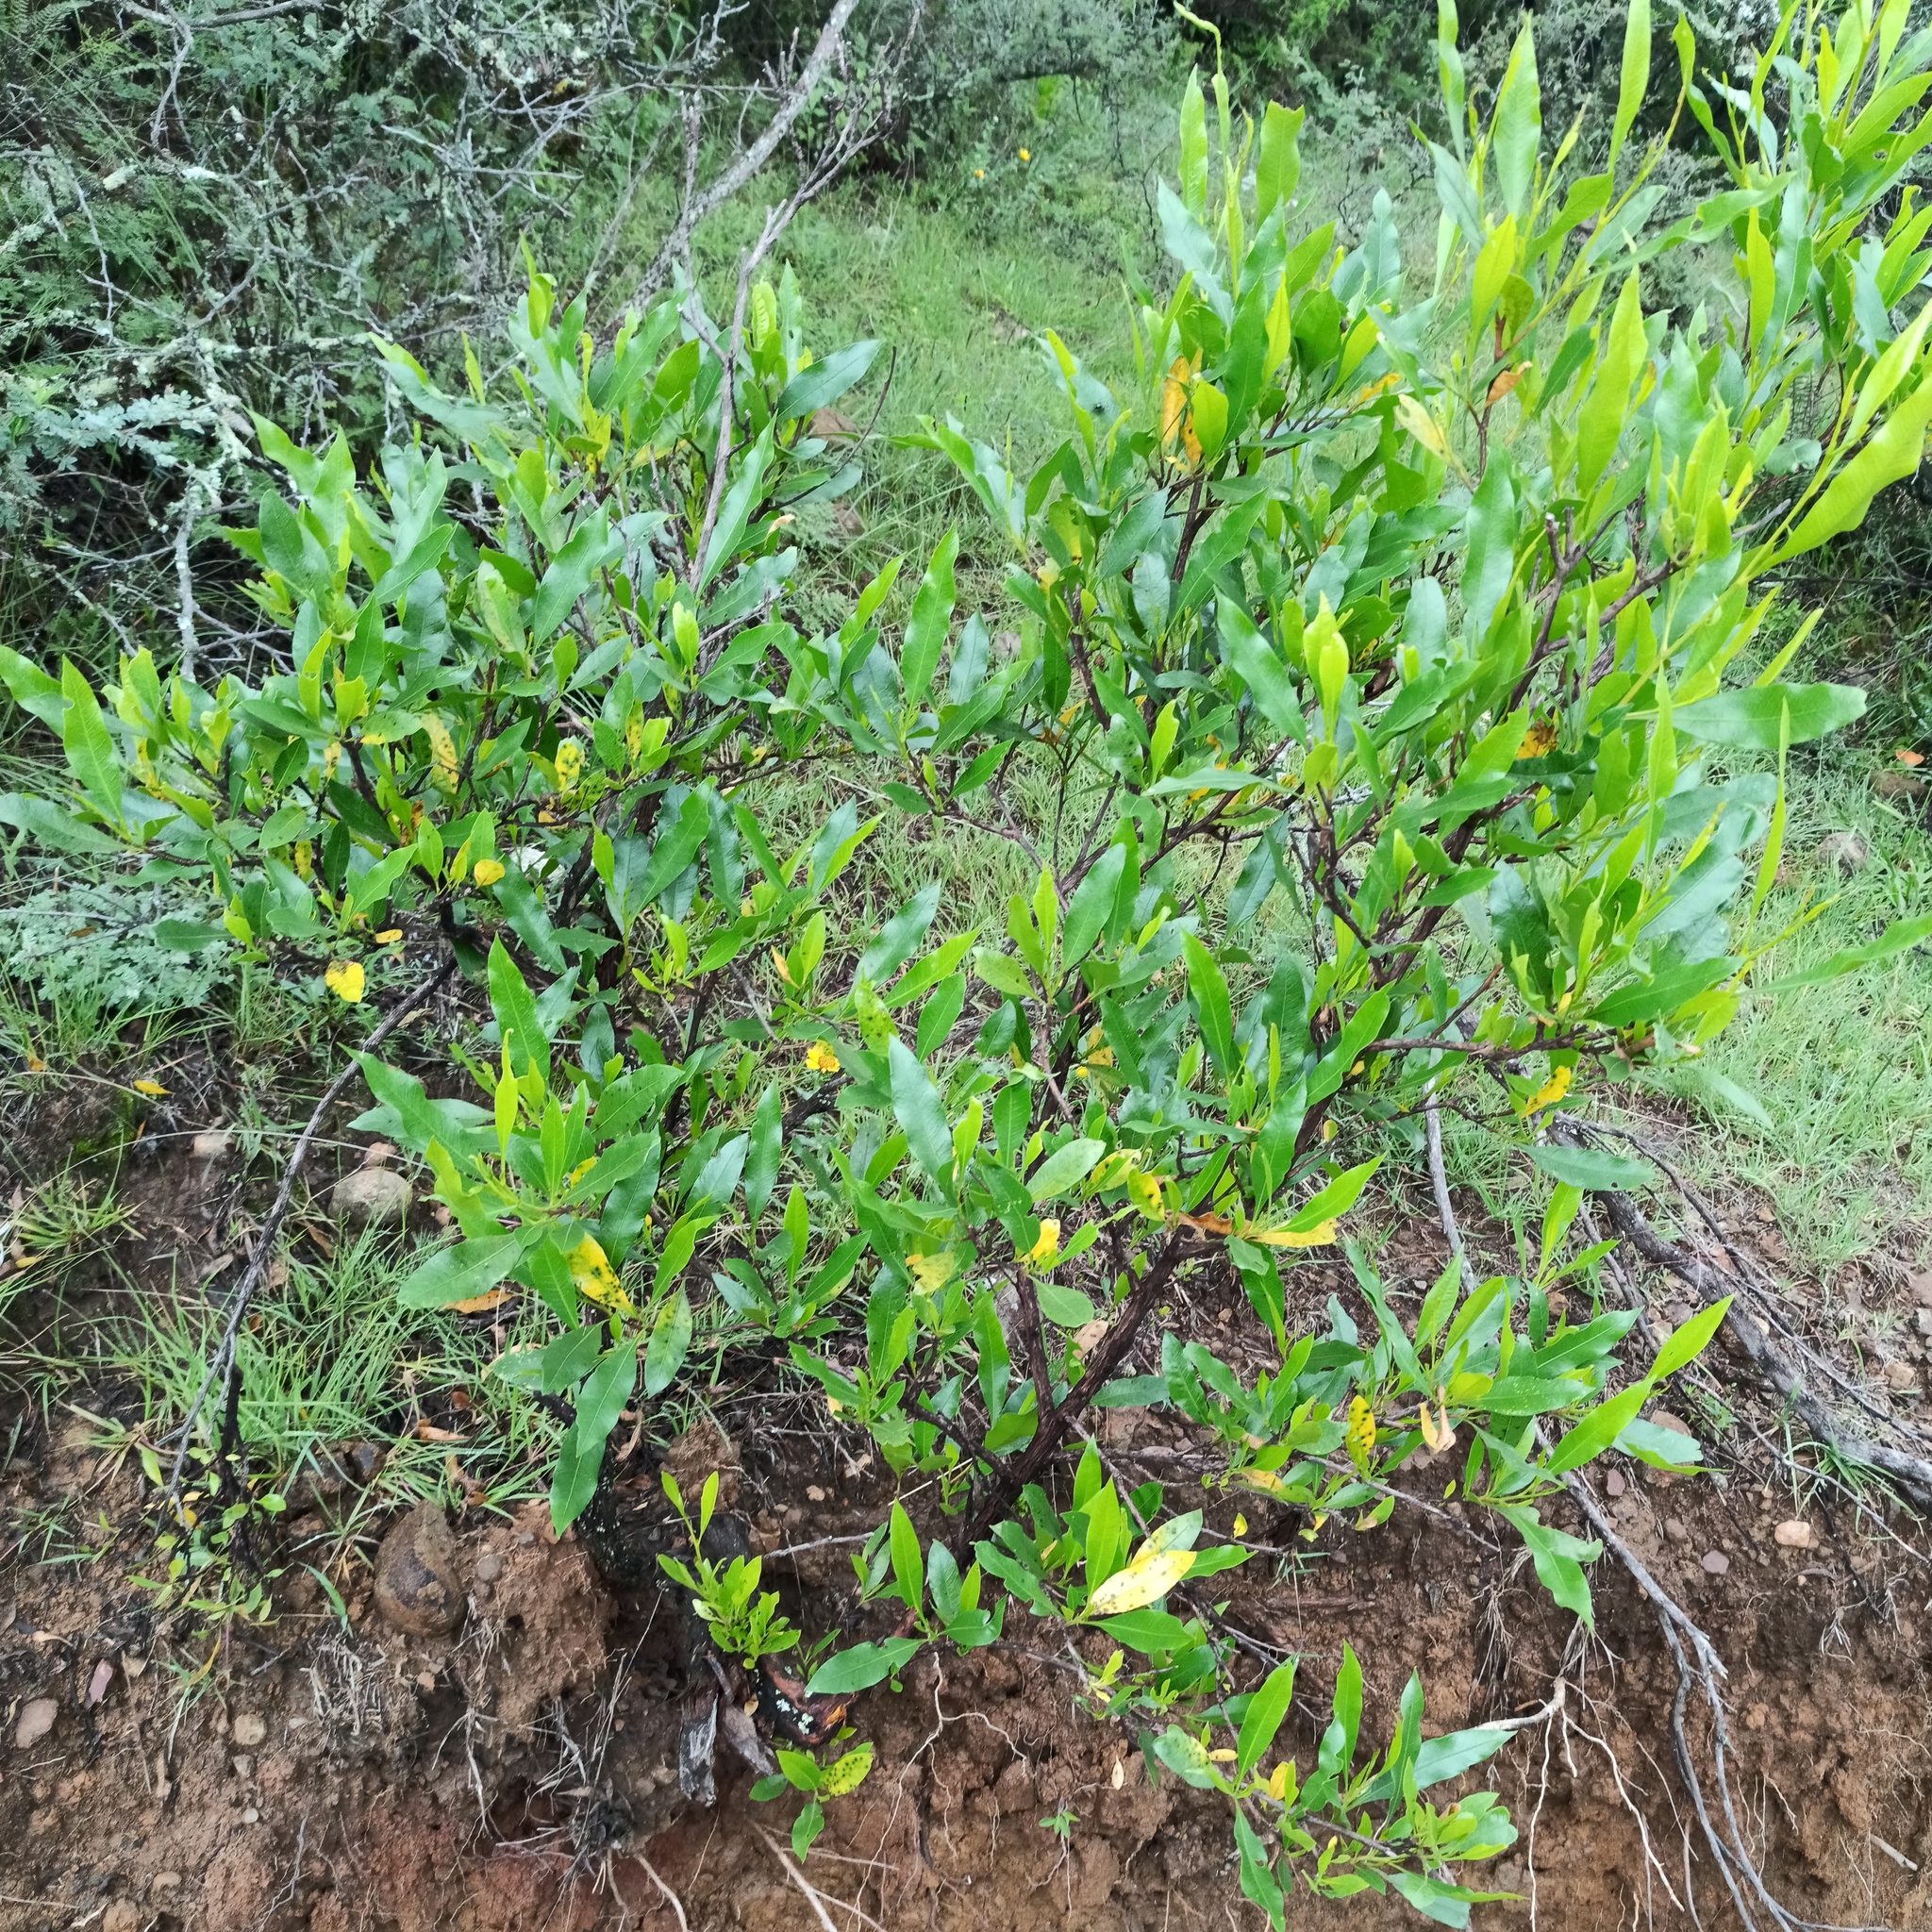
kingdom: Plantae
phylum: Tracheophyta
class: Magnoliopsida
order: Sapindales
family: Sapindaceae
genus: Dodonaea
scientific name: Dodonaea viscosa
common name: Hopbush
